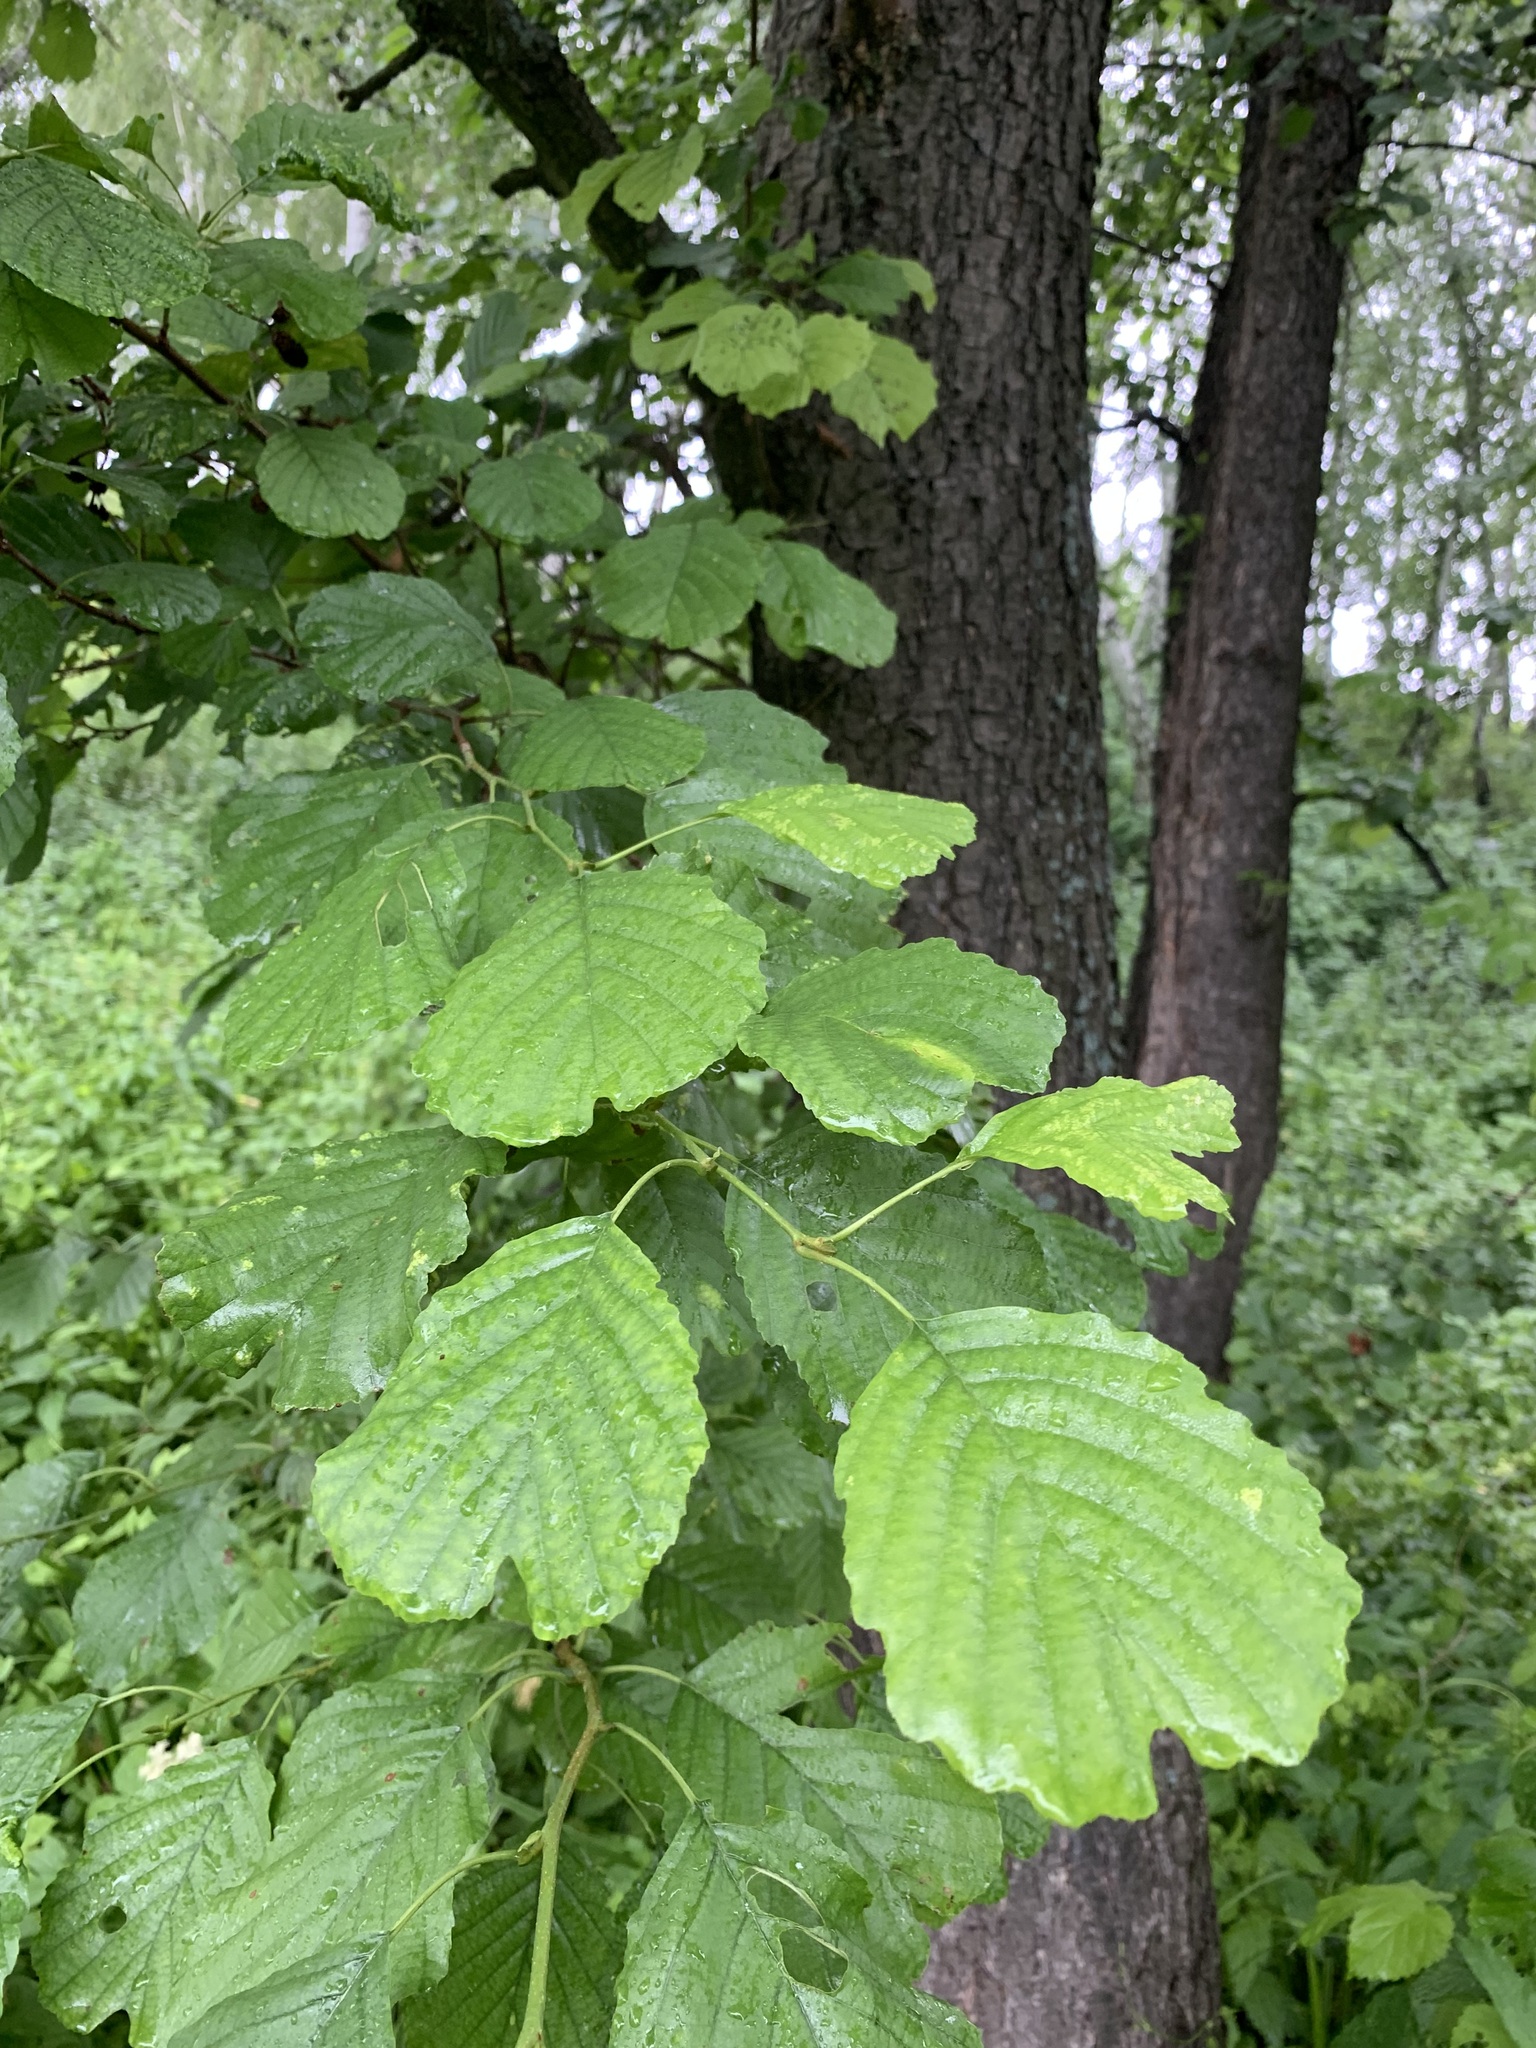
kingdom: Plantae
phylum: Tracheophyta
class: Magnoliopsida
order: Fagales
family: Betulaceae
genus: Alnus
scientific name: Alnus glutinosa
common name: Black alder
